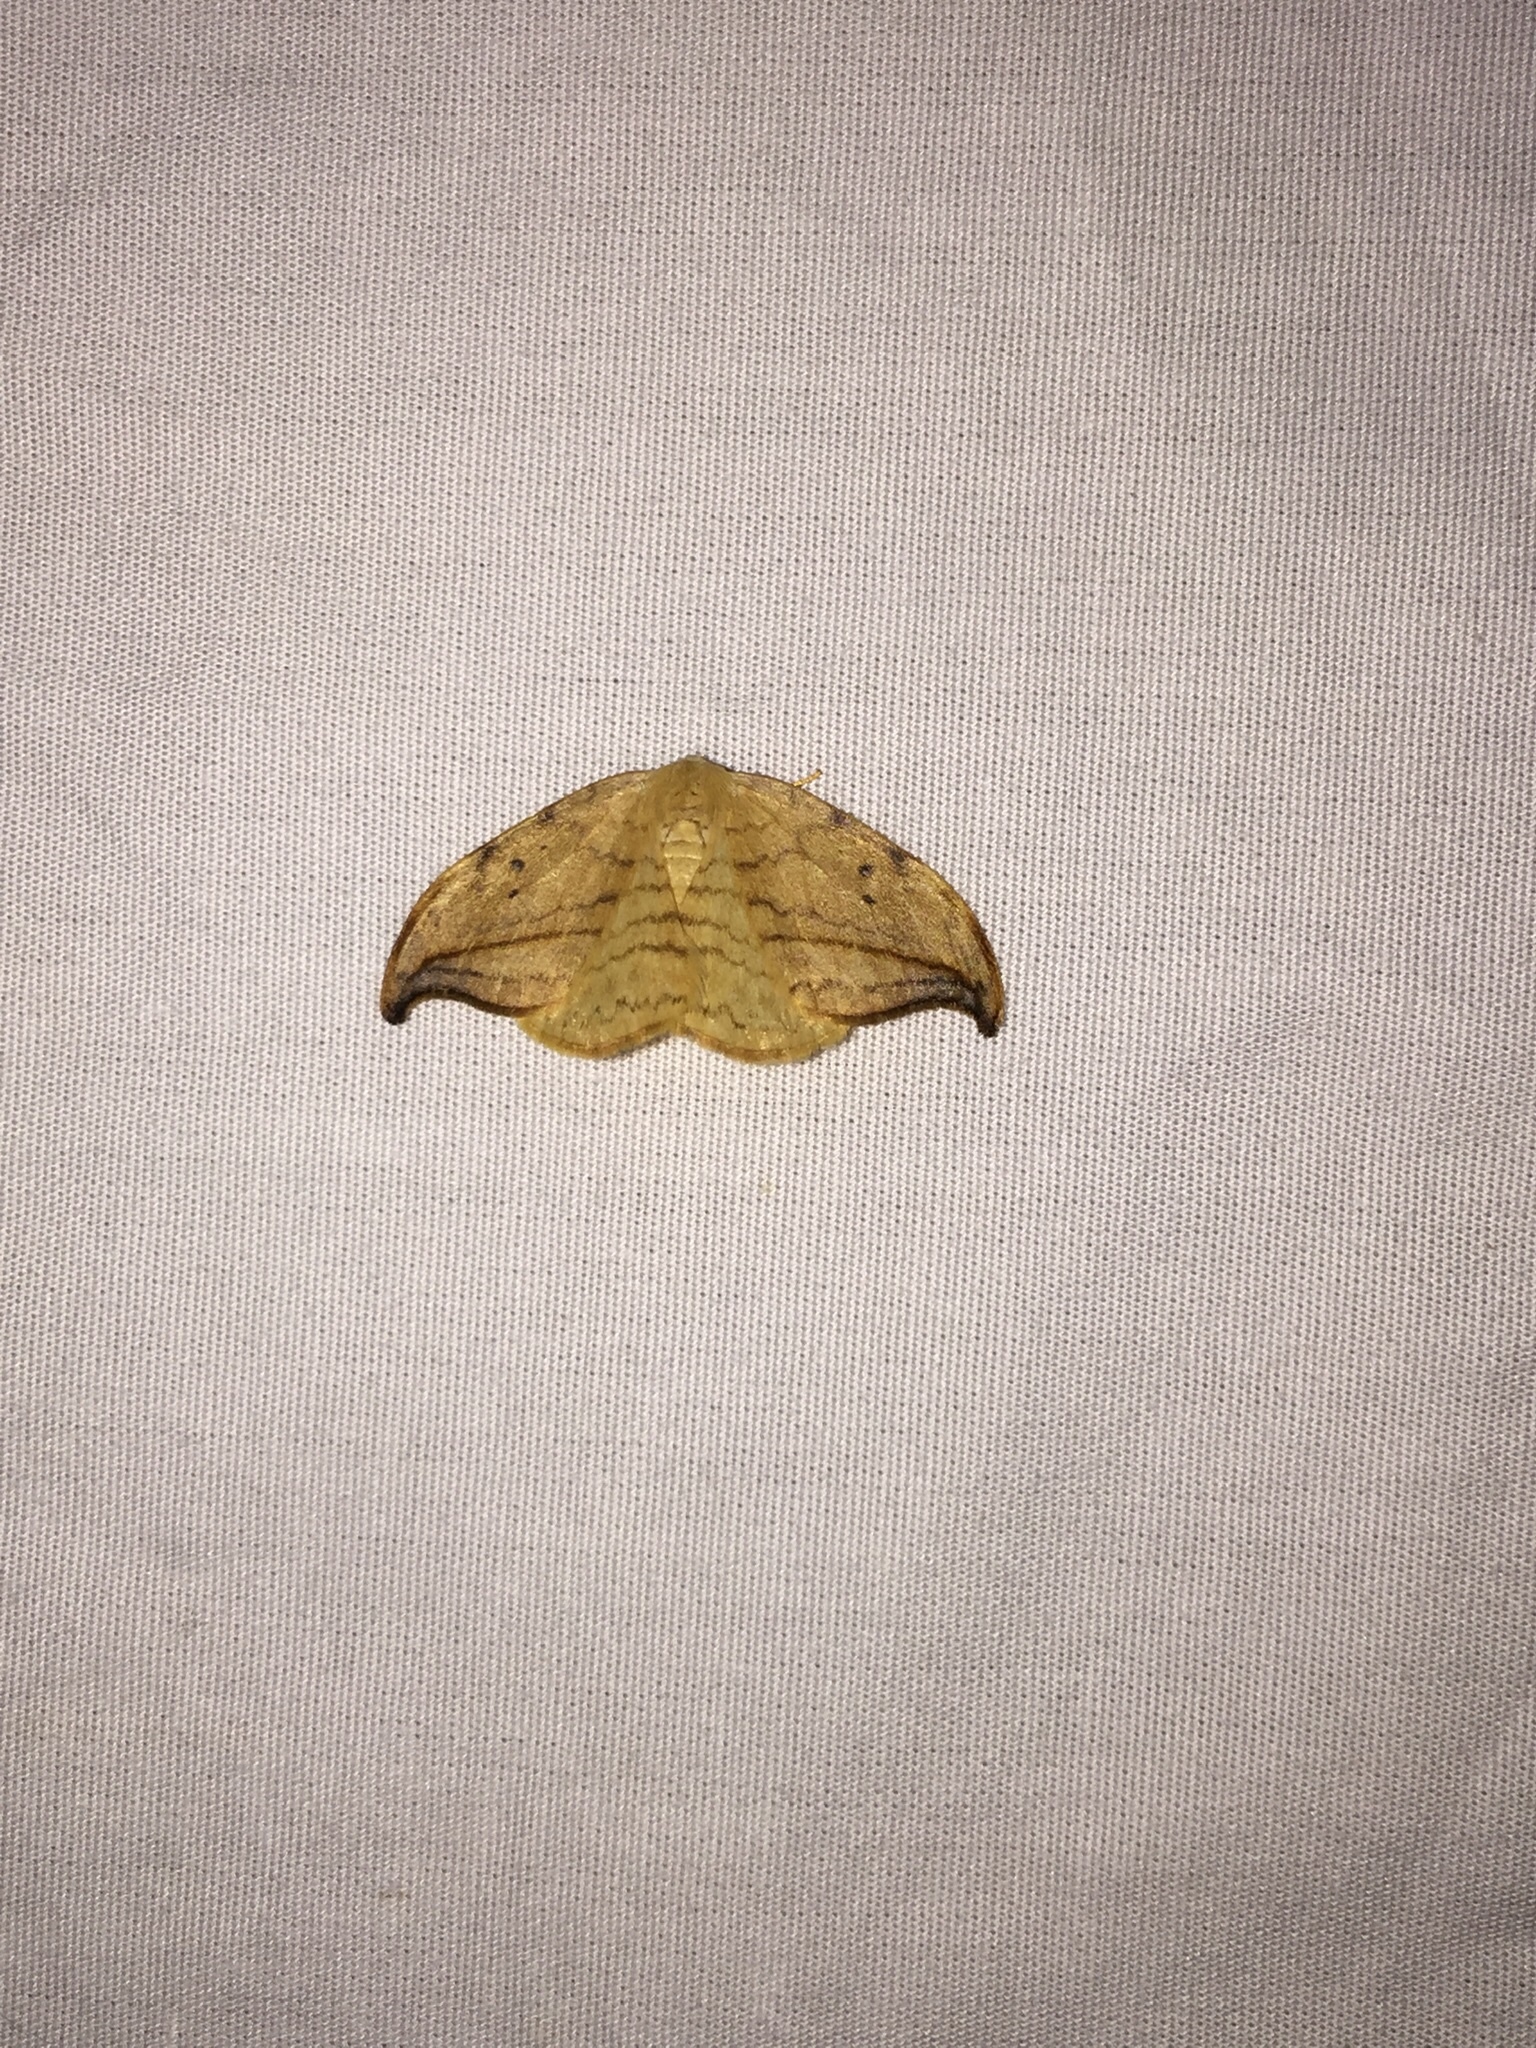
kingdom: Animalia
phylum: Arthropoda
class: Insecta
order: Lepidoptera
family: Drepanidae
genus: Drepana
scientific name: Drepana arcuata
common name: Arched hooktip moth
